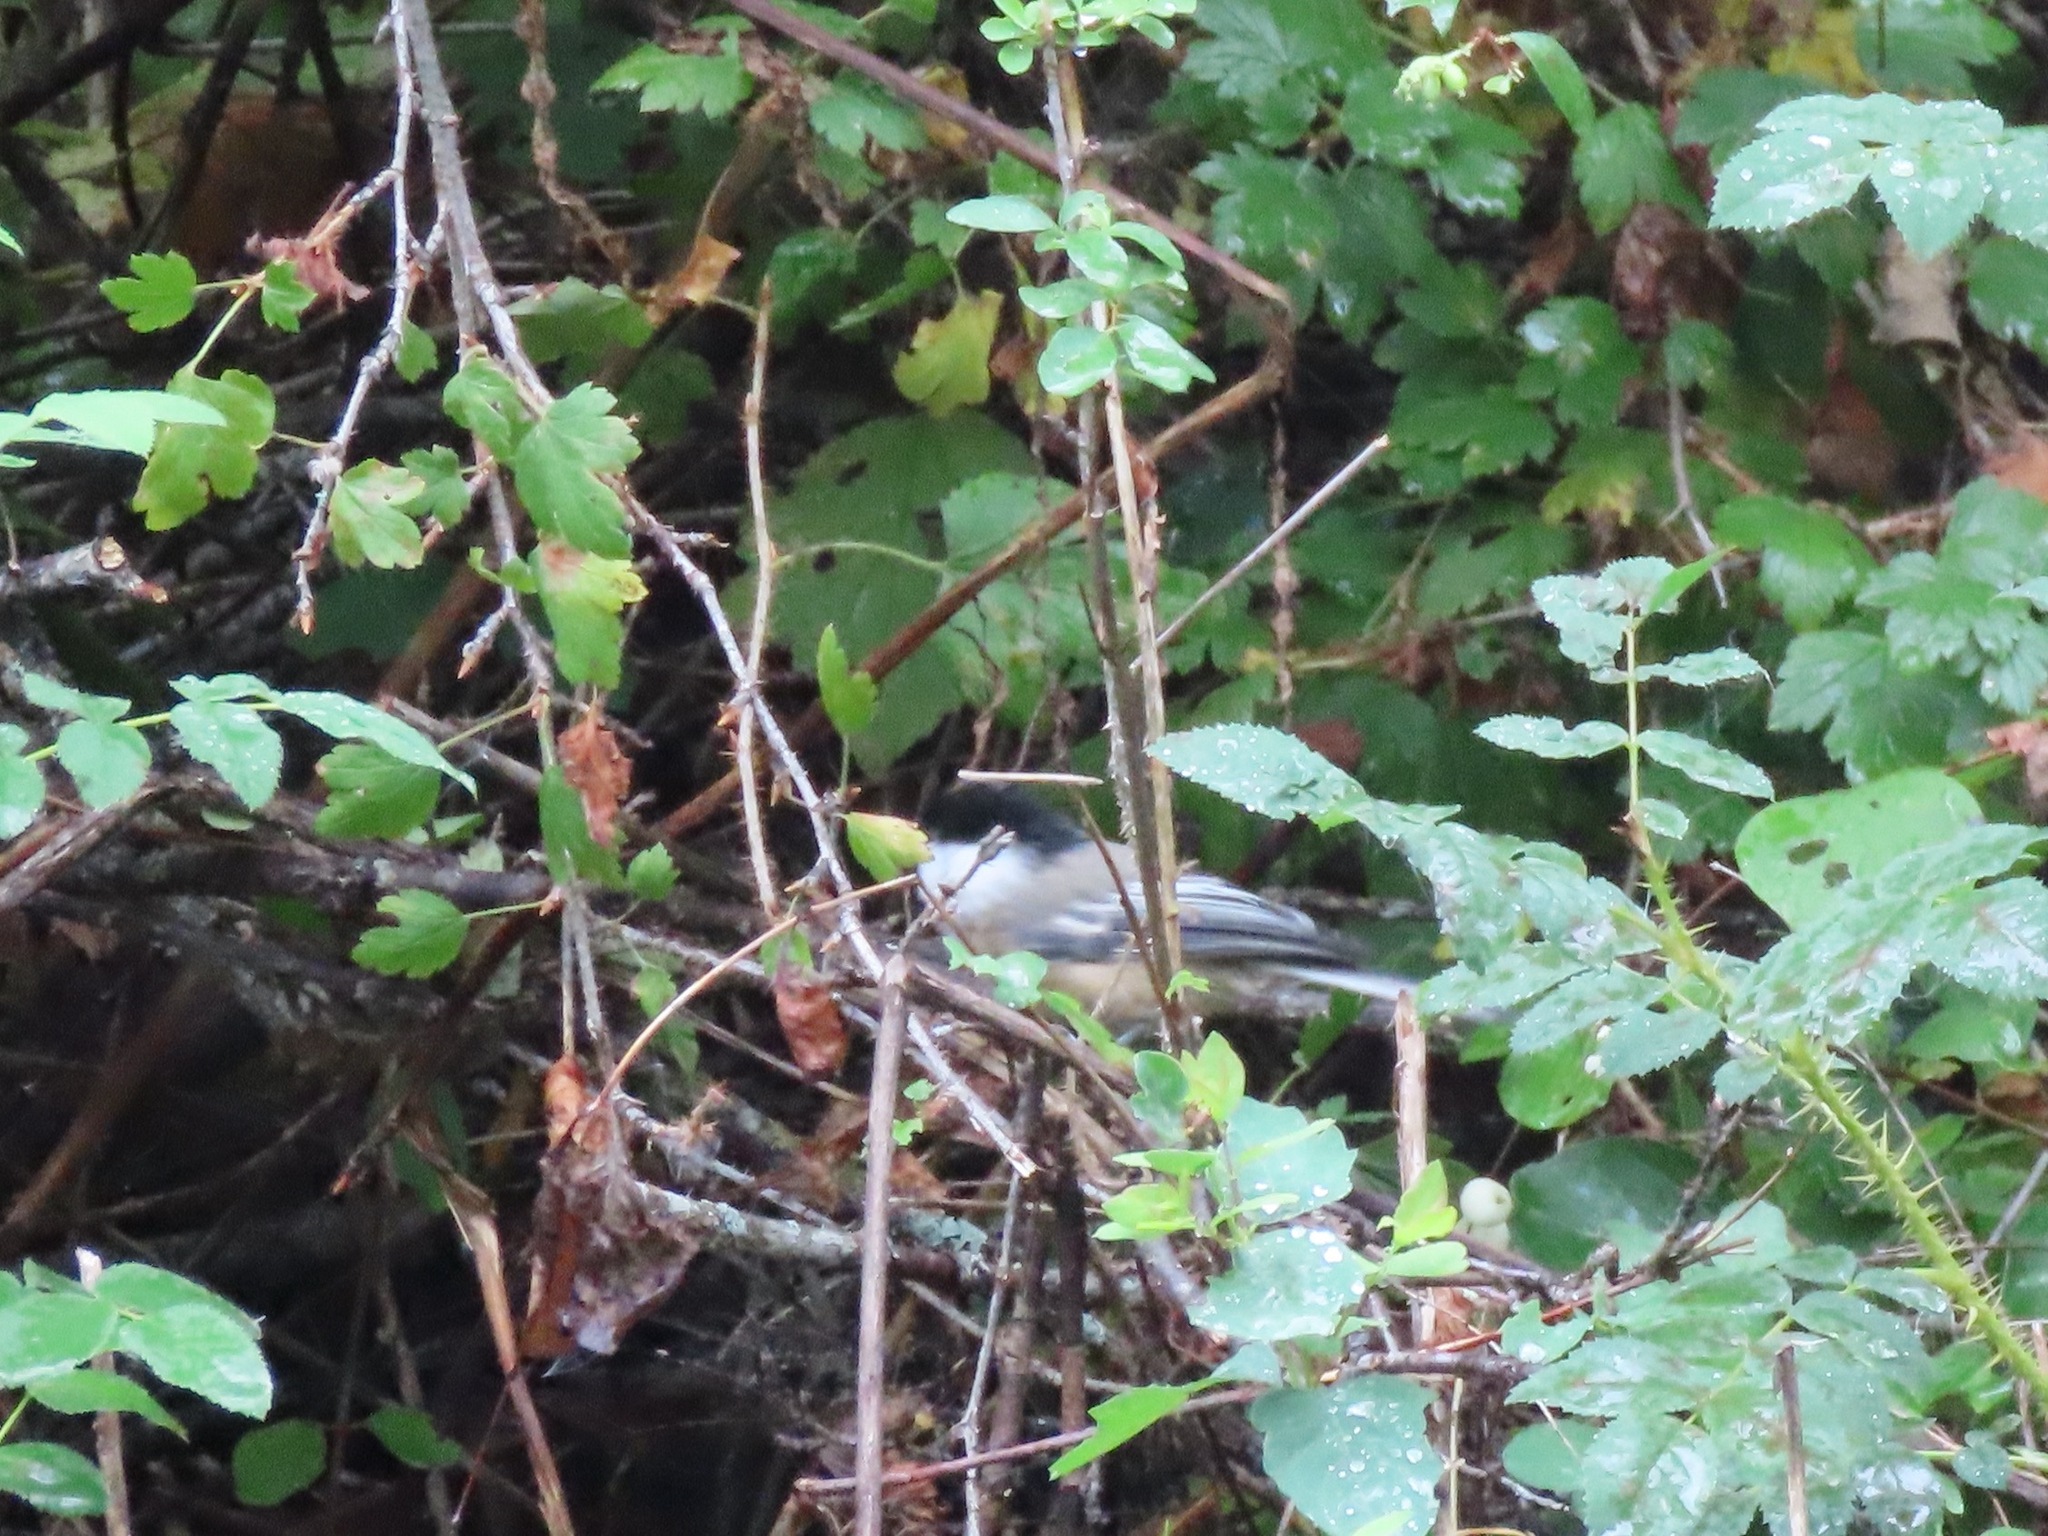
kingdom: Animalia
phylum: Chordata
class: Aves
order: Passeriformes
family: Paridae
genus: Poecile
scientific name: Poecile atricapillus
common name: Black-capped chickadee
